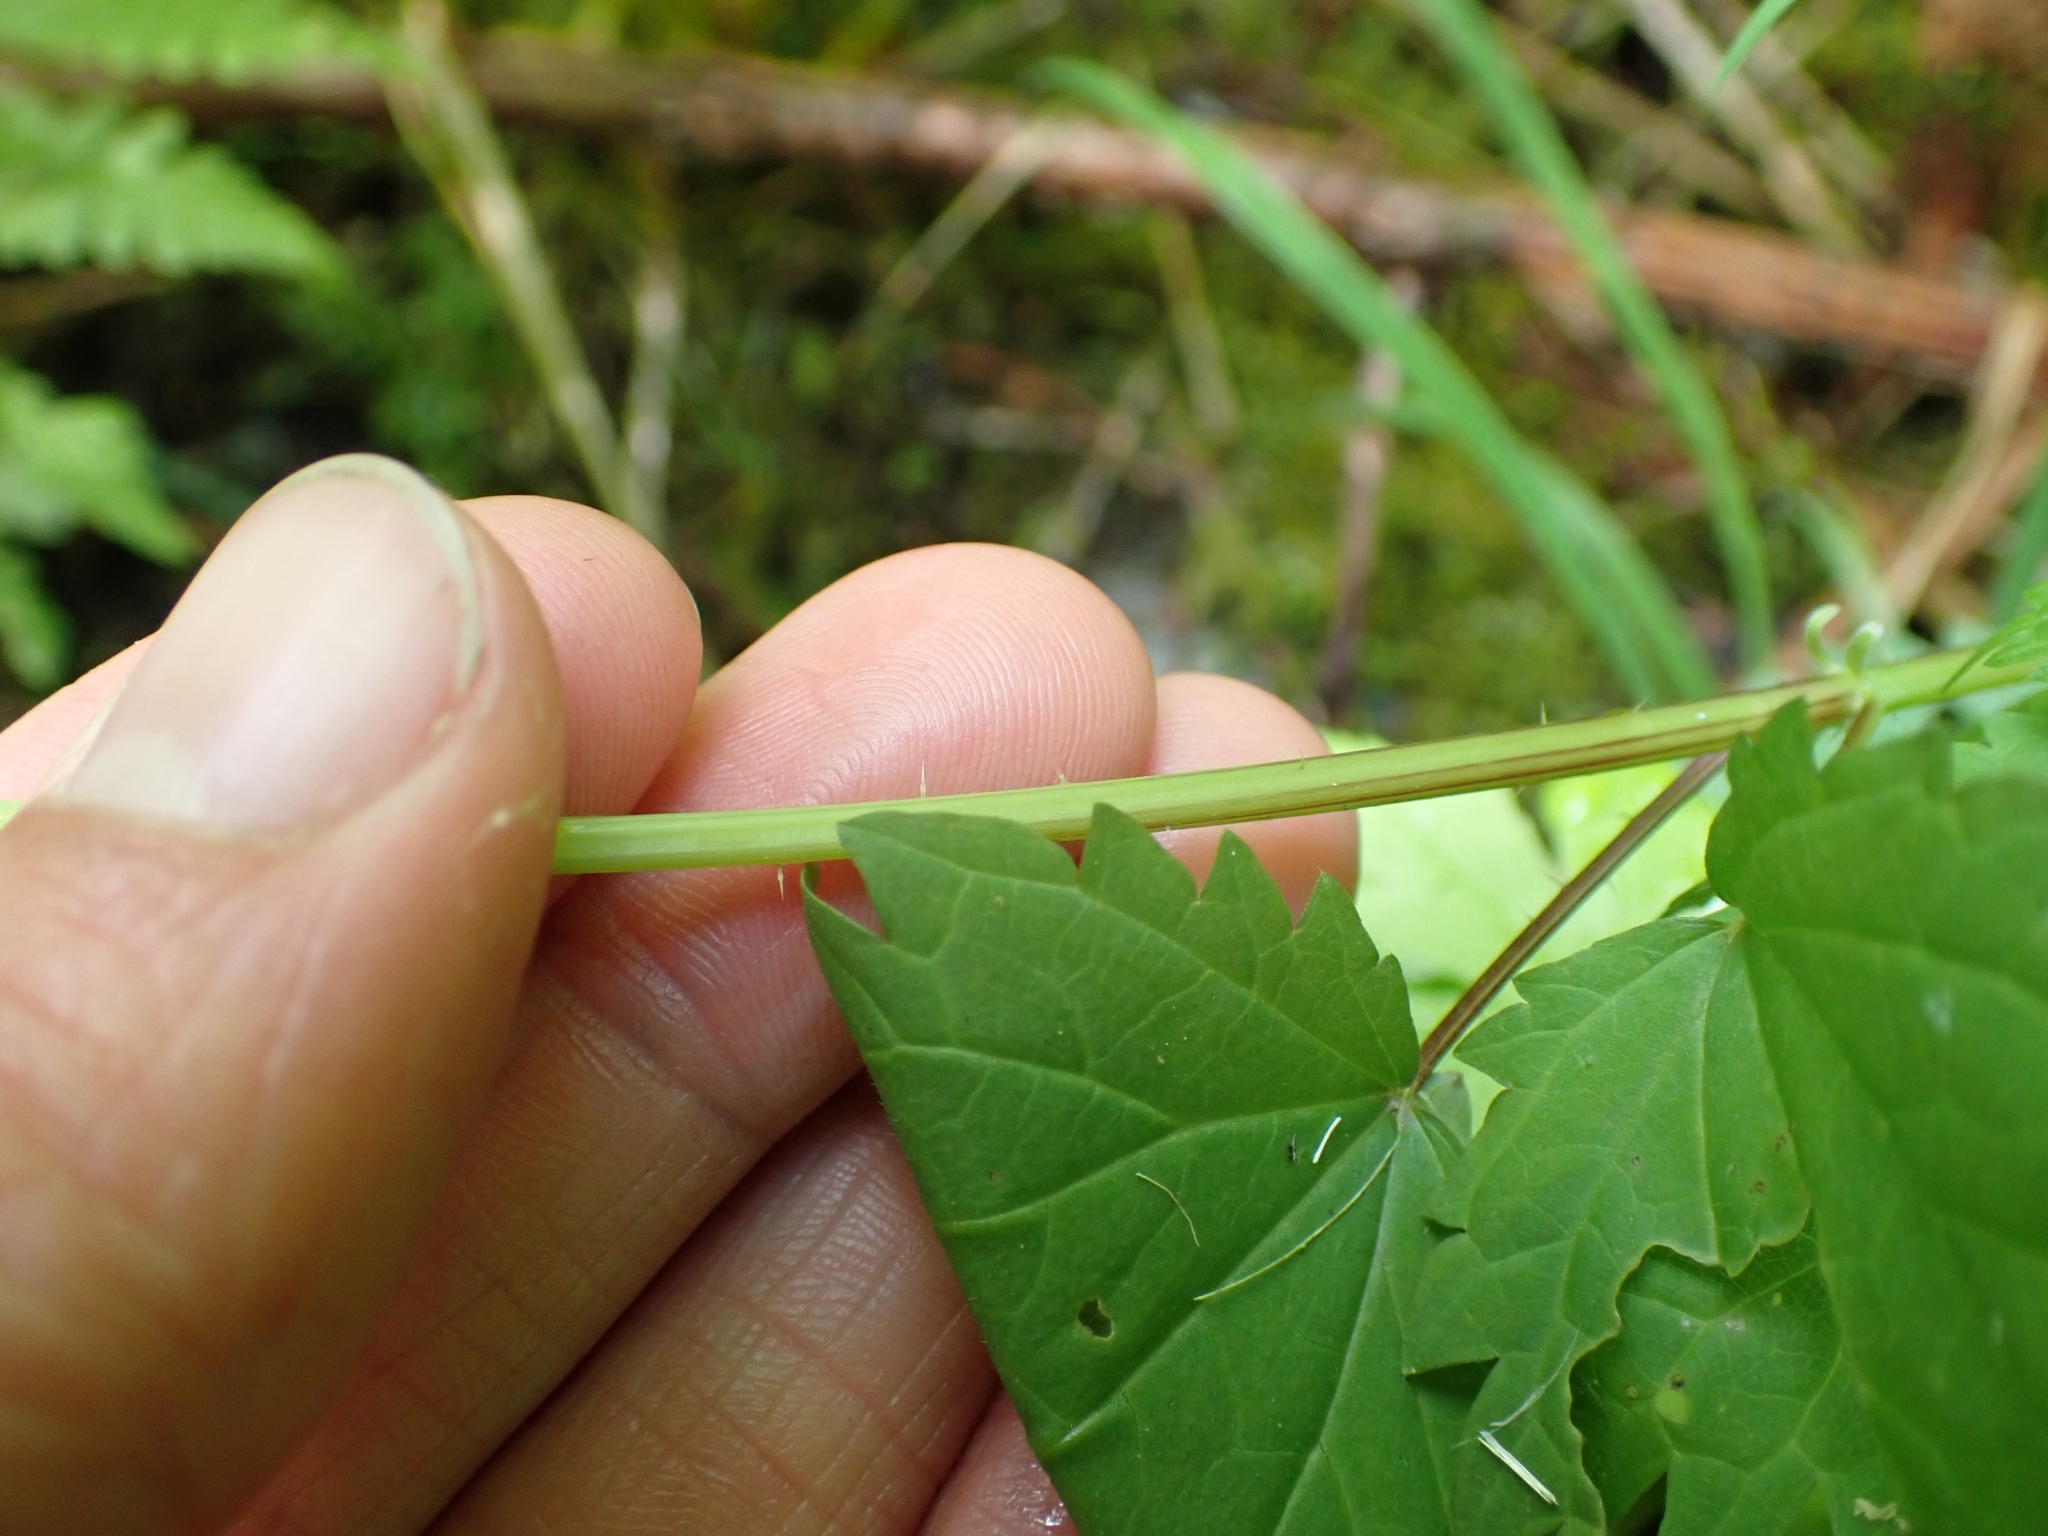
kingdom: Plantae
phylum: Tracheophyta
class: Magnoliopsida
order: Rosales
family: Urticaceae
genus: Urtica
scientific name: Urtica dioica
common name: Common nettle
